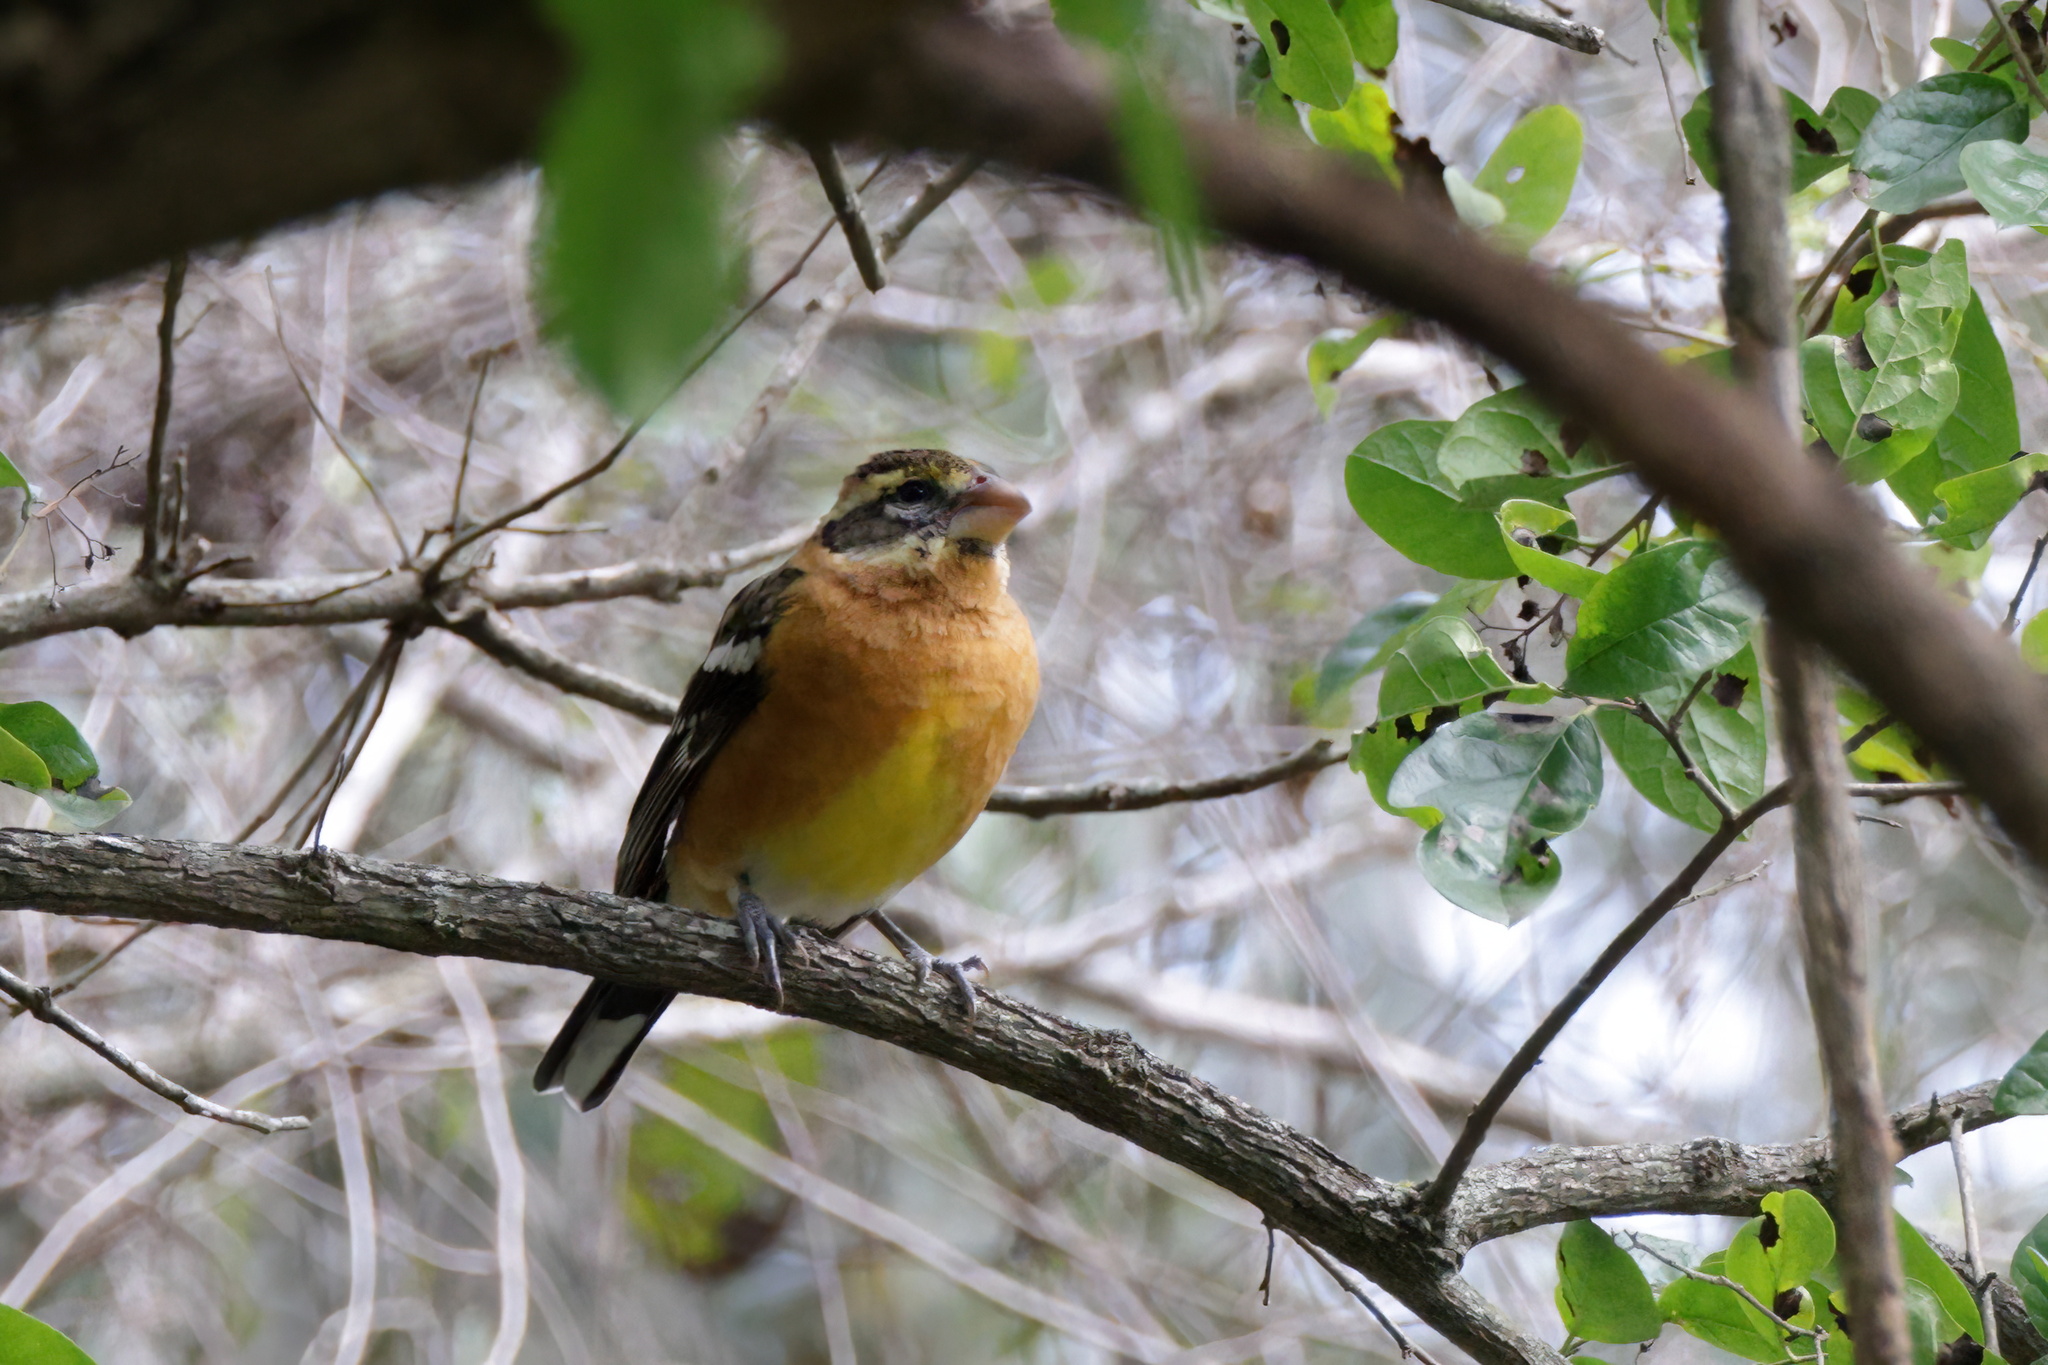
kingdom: Animalia
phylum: Chordata
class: Aves
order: Passeriformes
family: Cardinalidae
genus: Pheucticus
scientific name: Pheucticus melanocephalus
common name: Black-headed grosbeak
